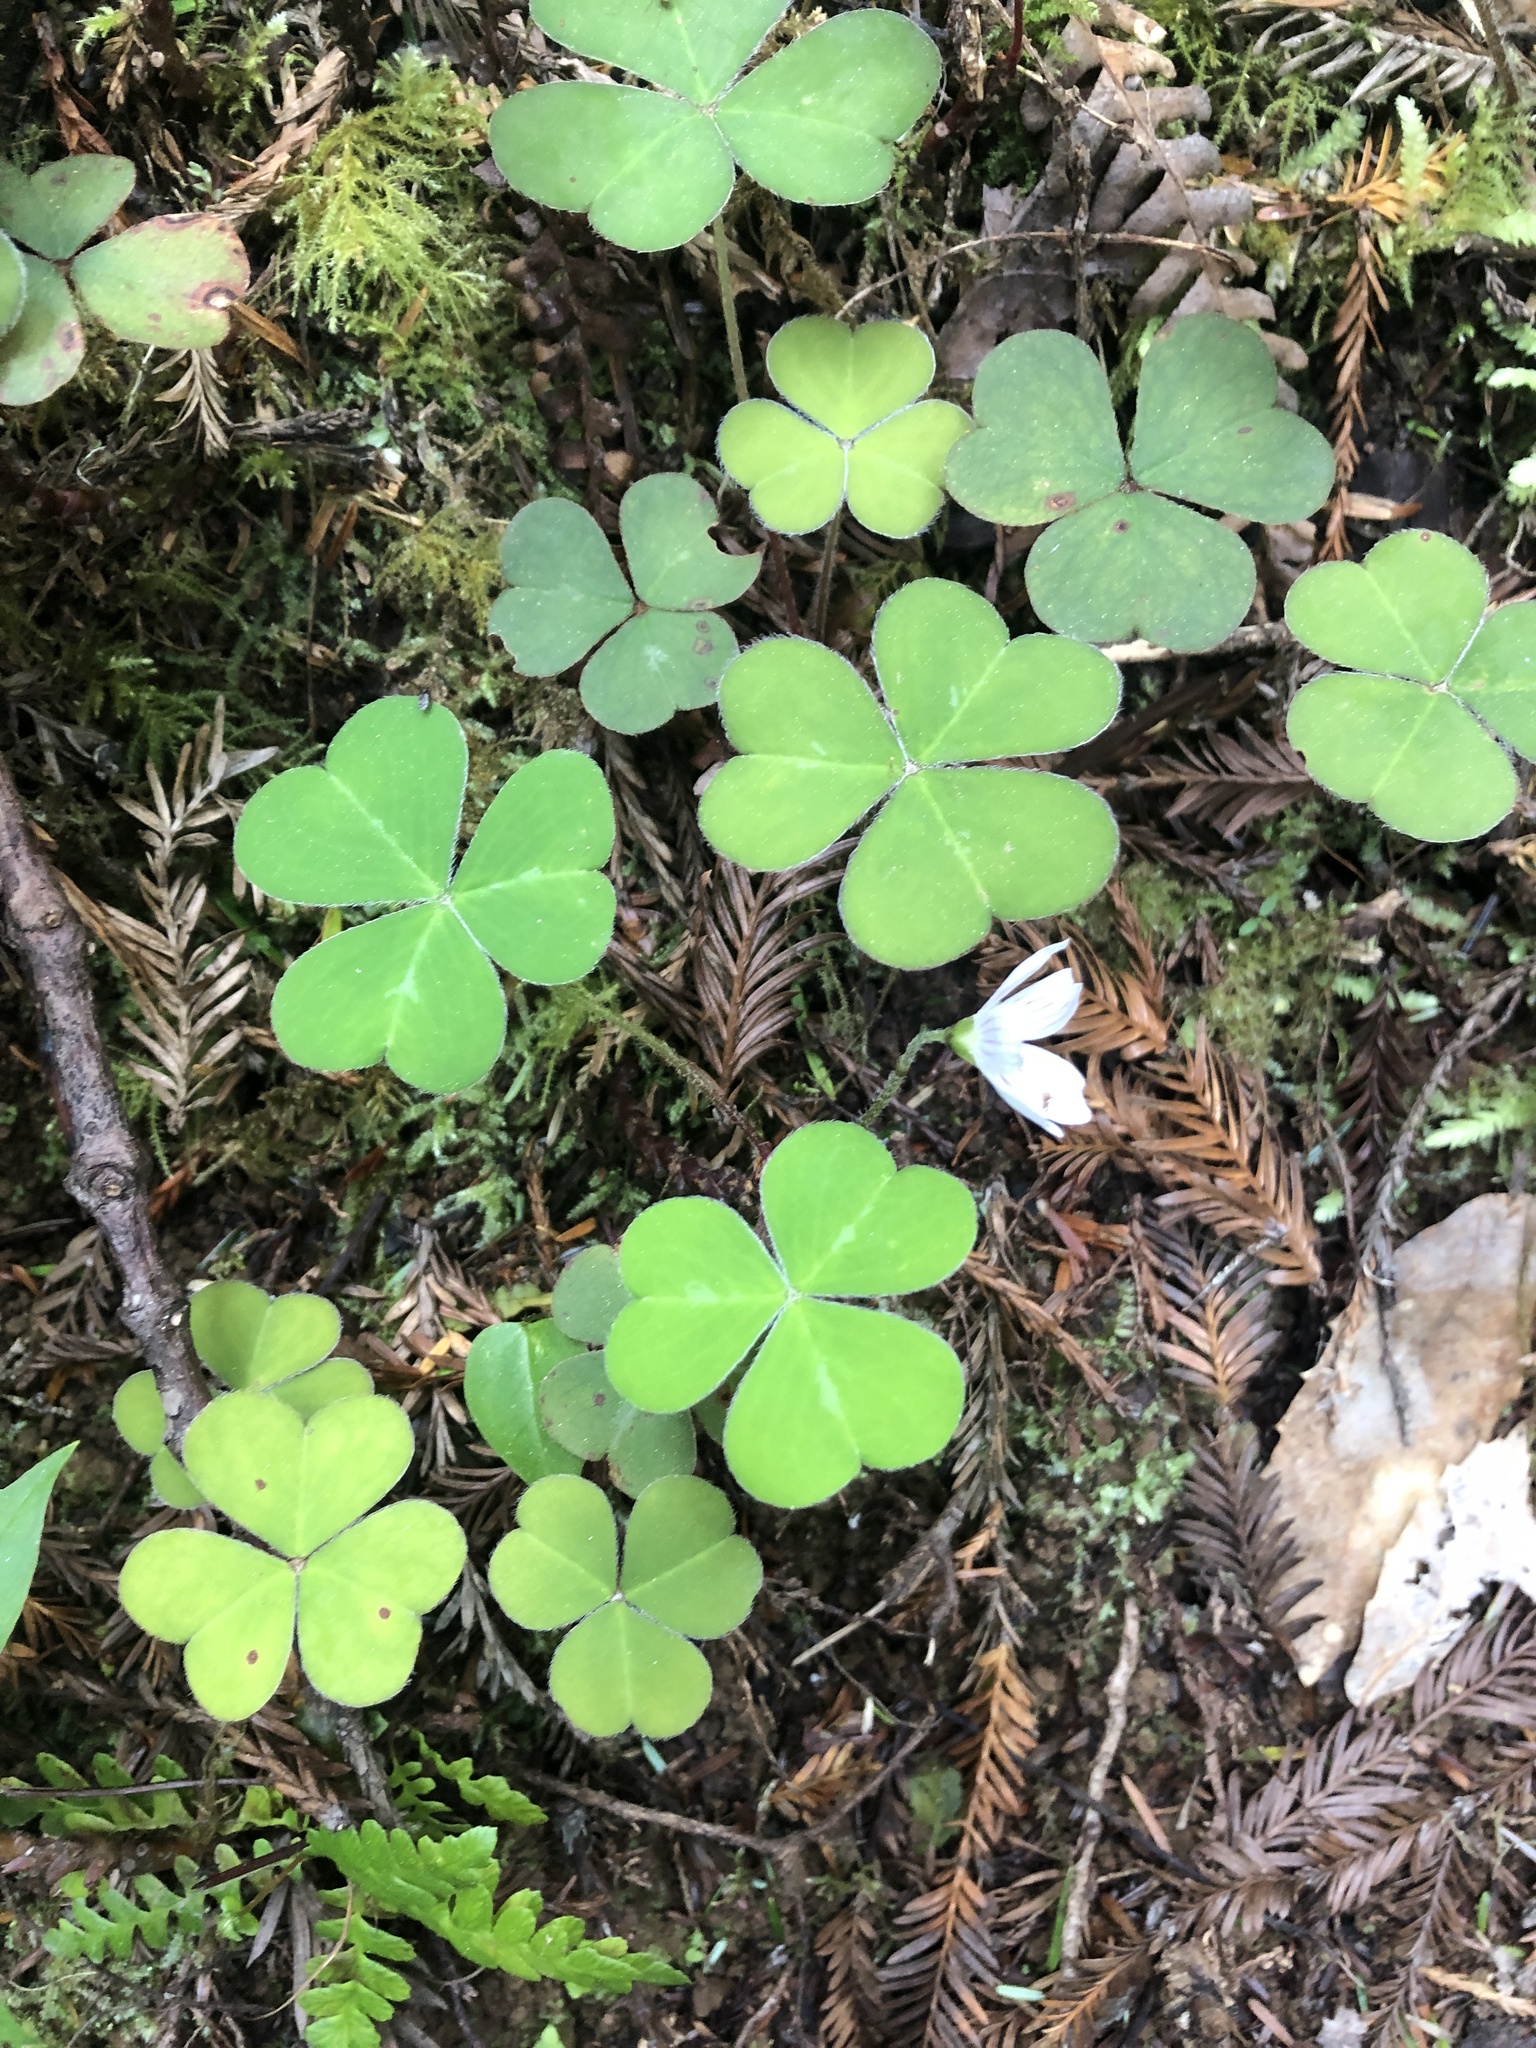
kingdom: Plantae
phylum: Tracheophyta
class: Magnoliopsida
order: Oxalidales
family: Oxalidaceae
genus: Oxalis
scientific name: Oxalis oregana
